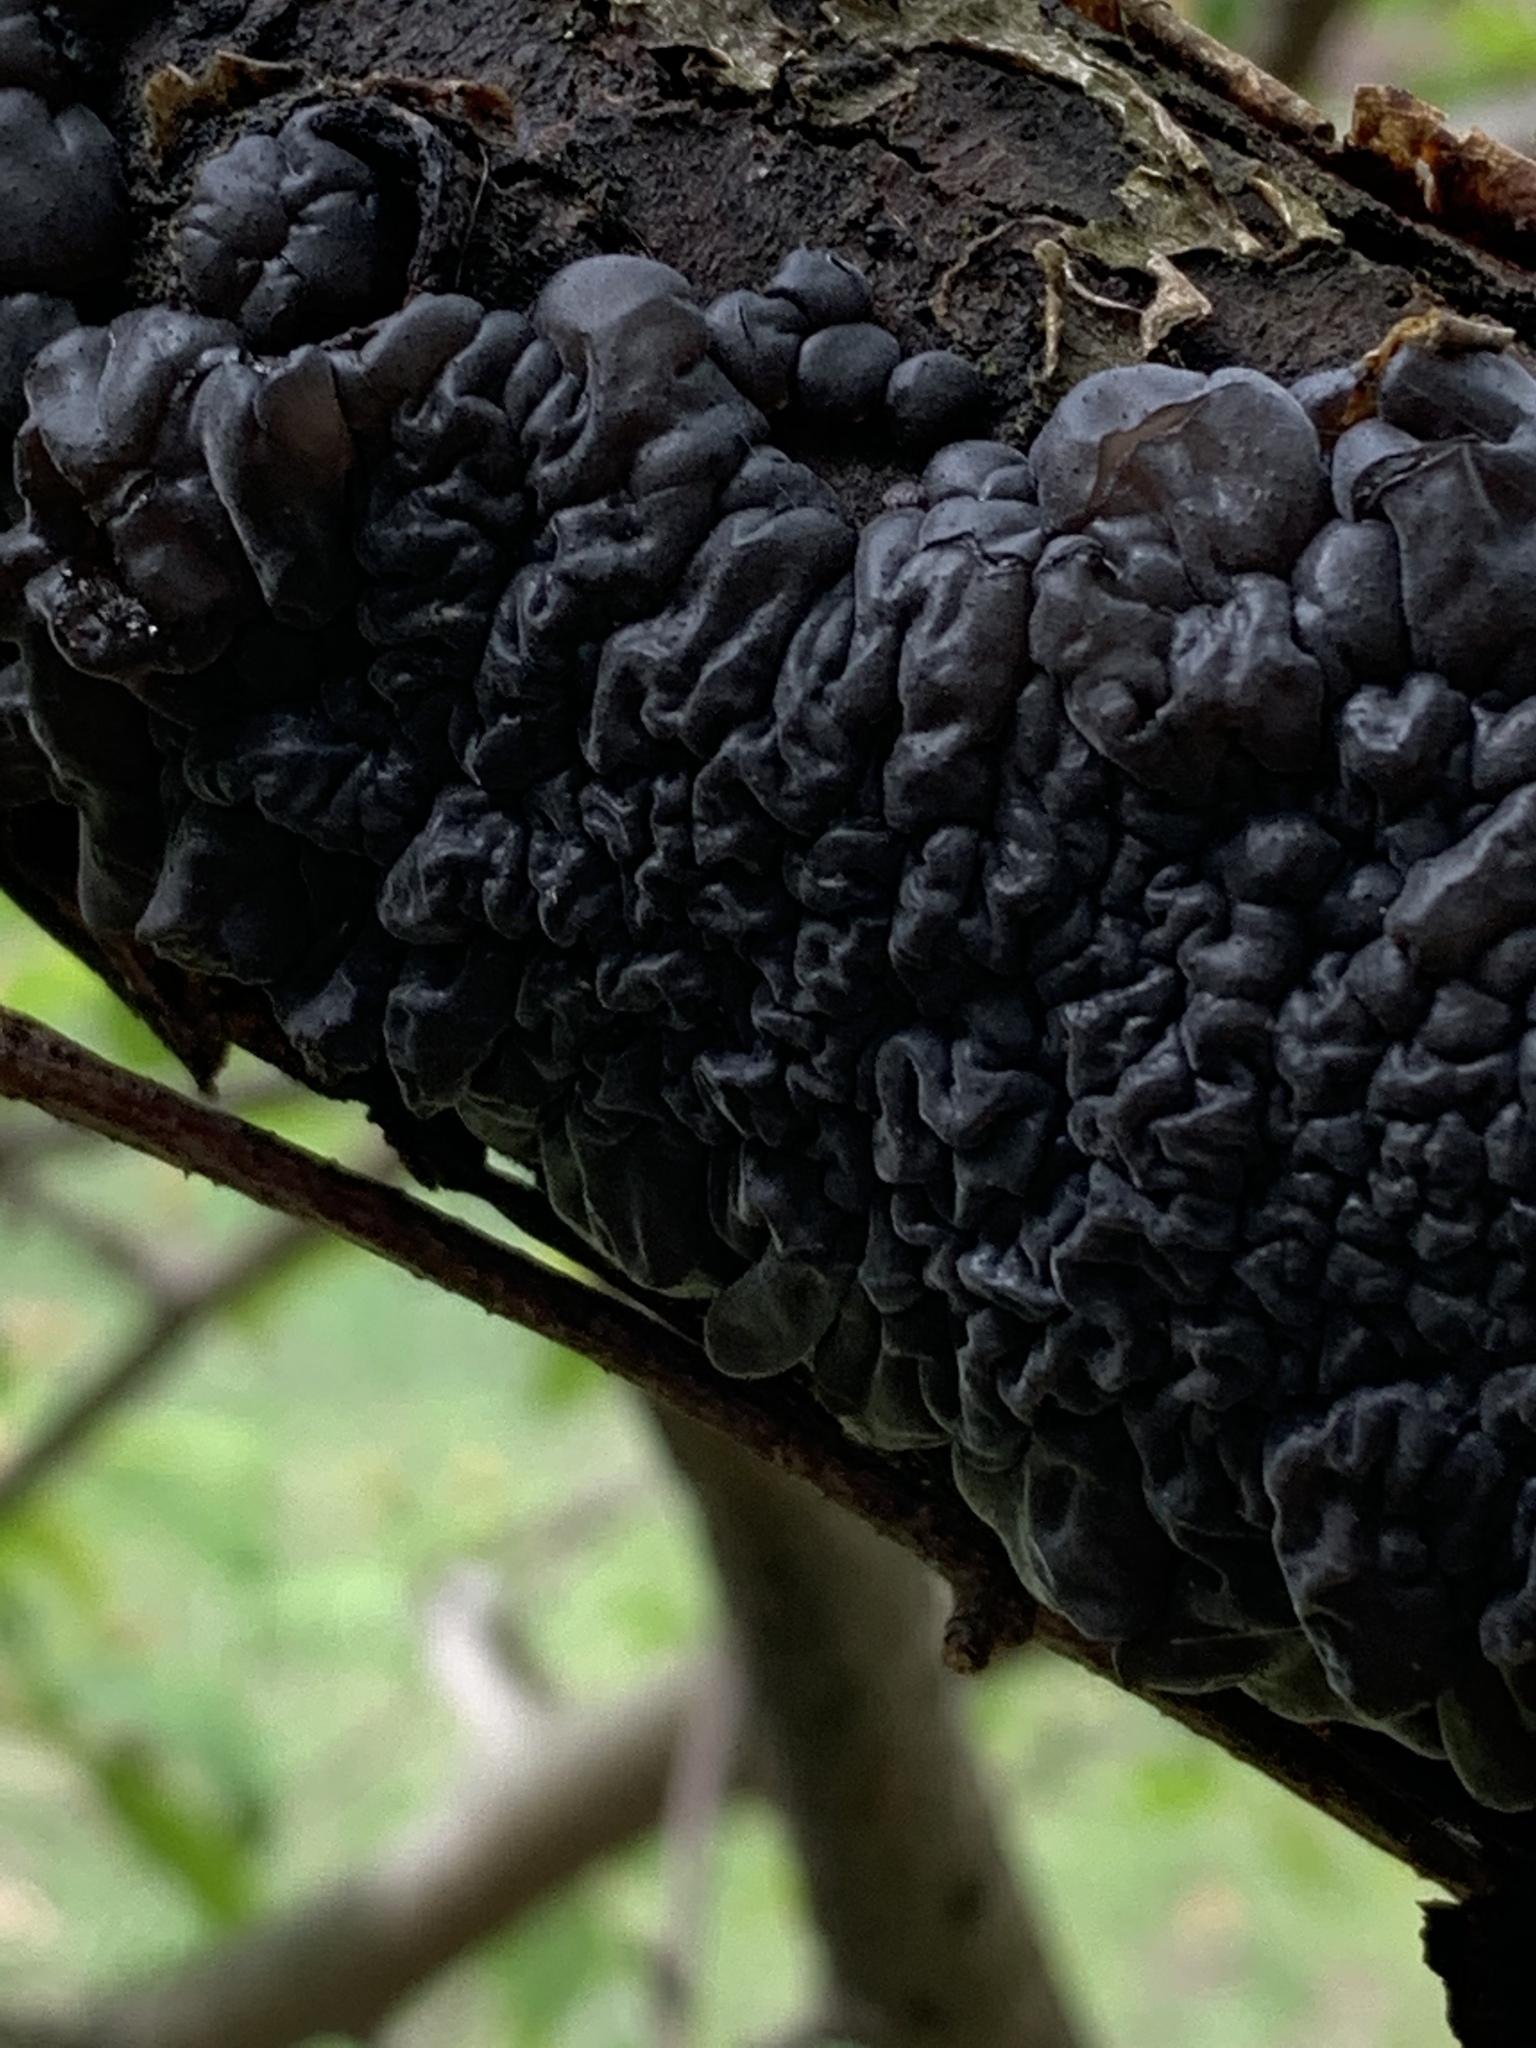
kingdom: Fungi
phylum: Basidiomycota
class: Agaricomycetes
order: Auriculariales
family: Auriculariaceae
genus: Exidia
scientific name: Exidia glandulosa
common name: Witches' butter
